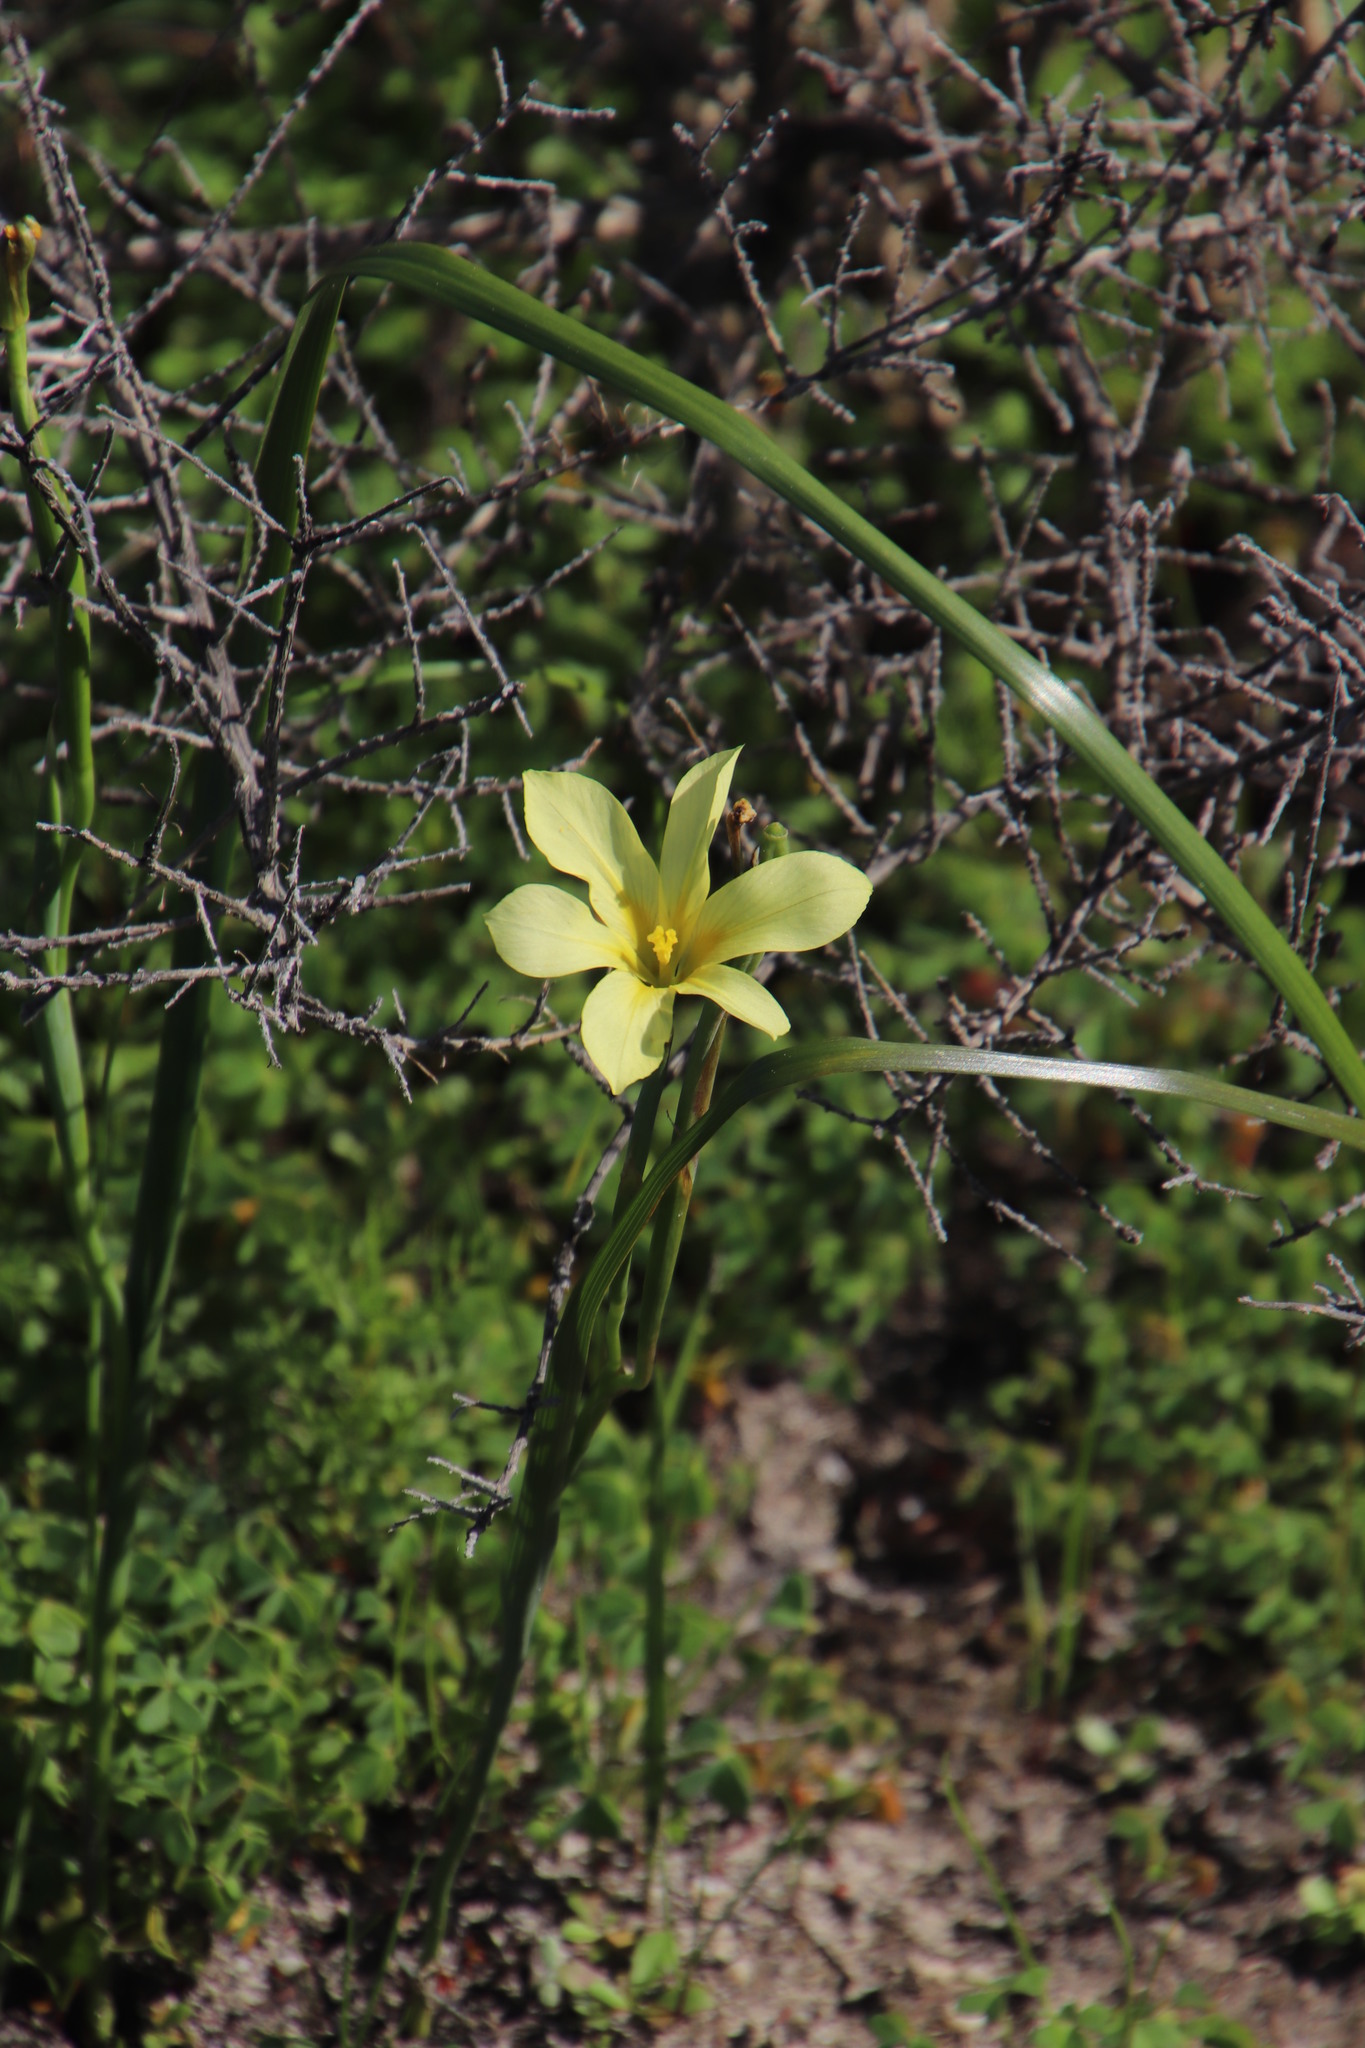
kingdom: Plantae
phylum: Tracheophyta
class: Liliopsida
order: Asparagales
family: Iridaceae
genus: Moraea
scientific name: Moraea collina
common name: Cape-tulip
